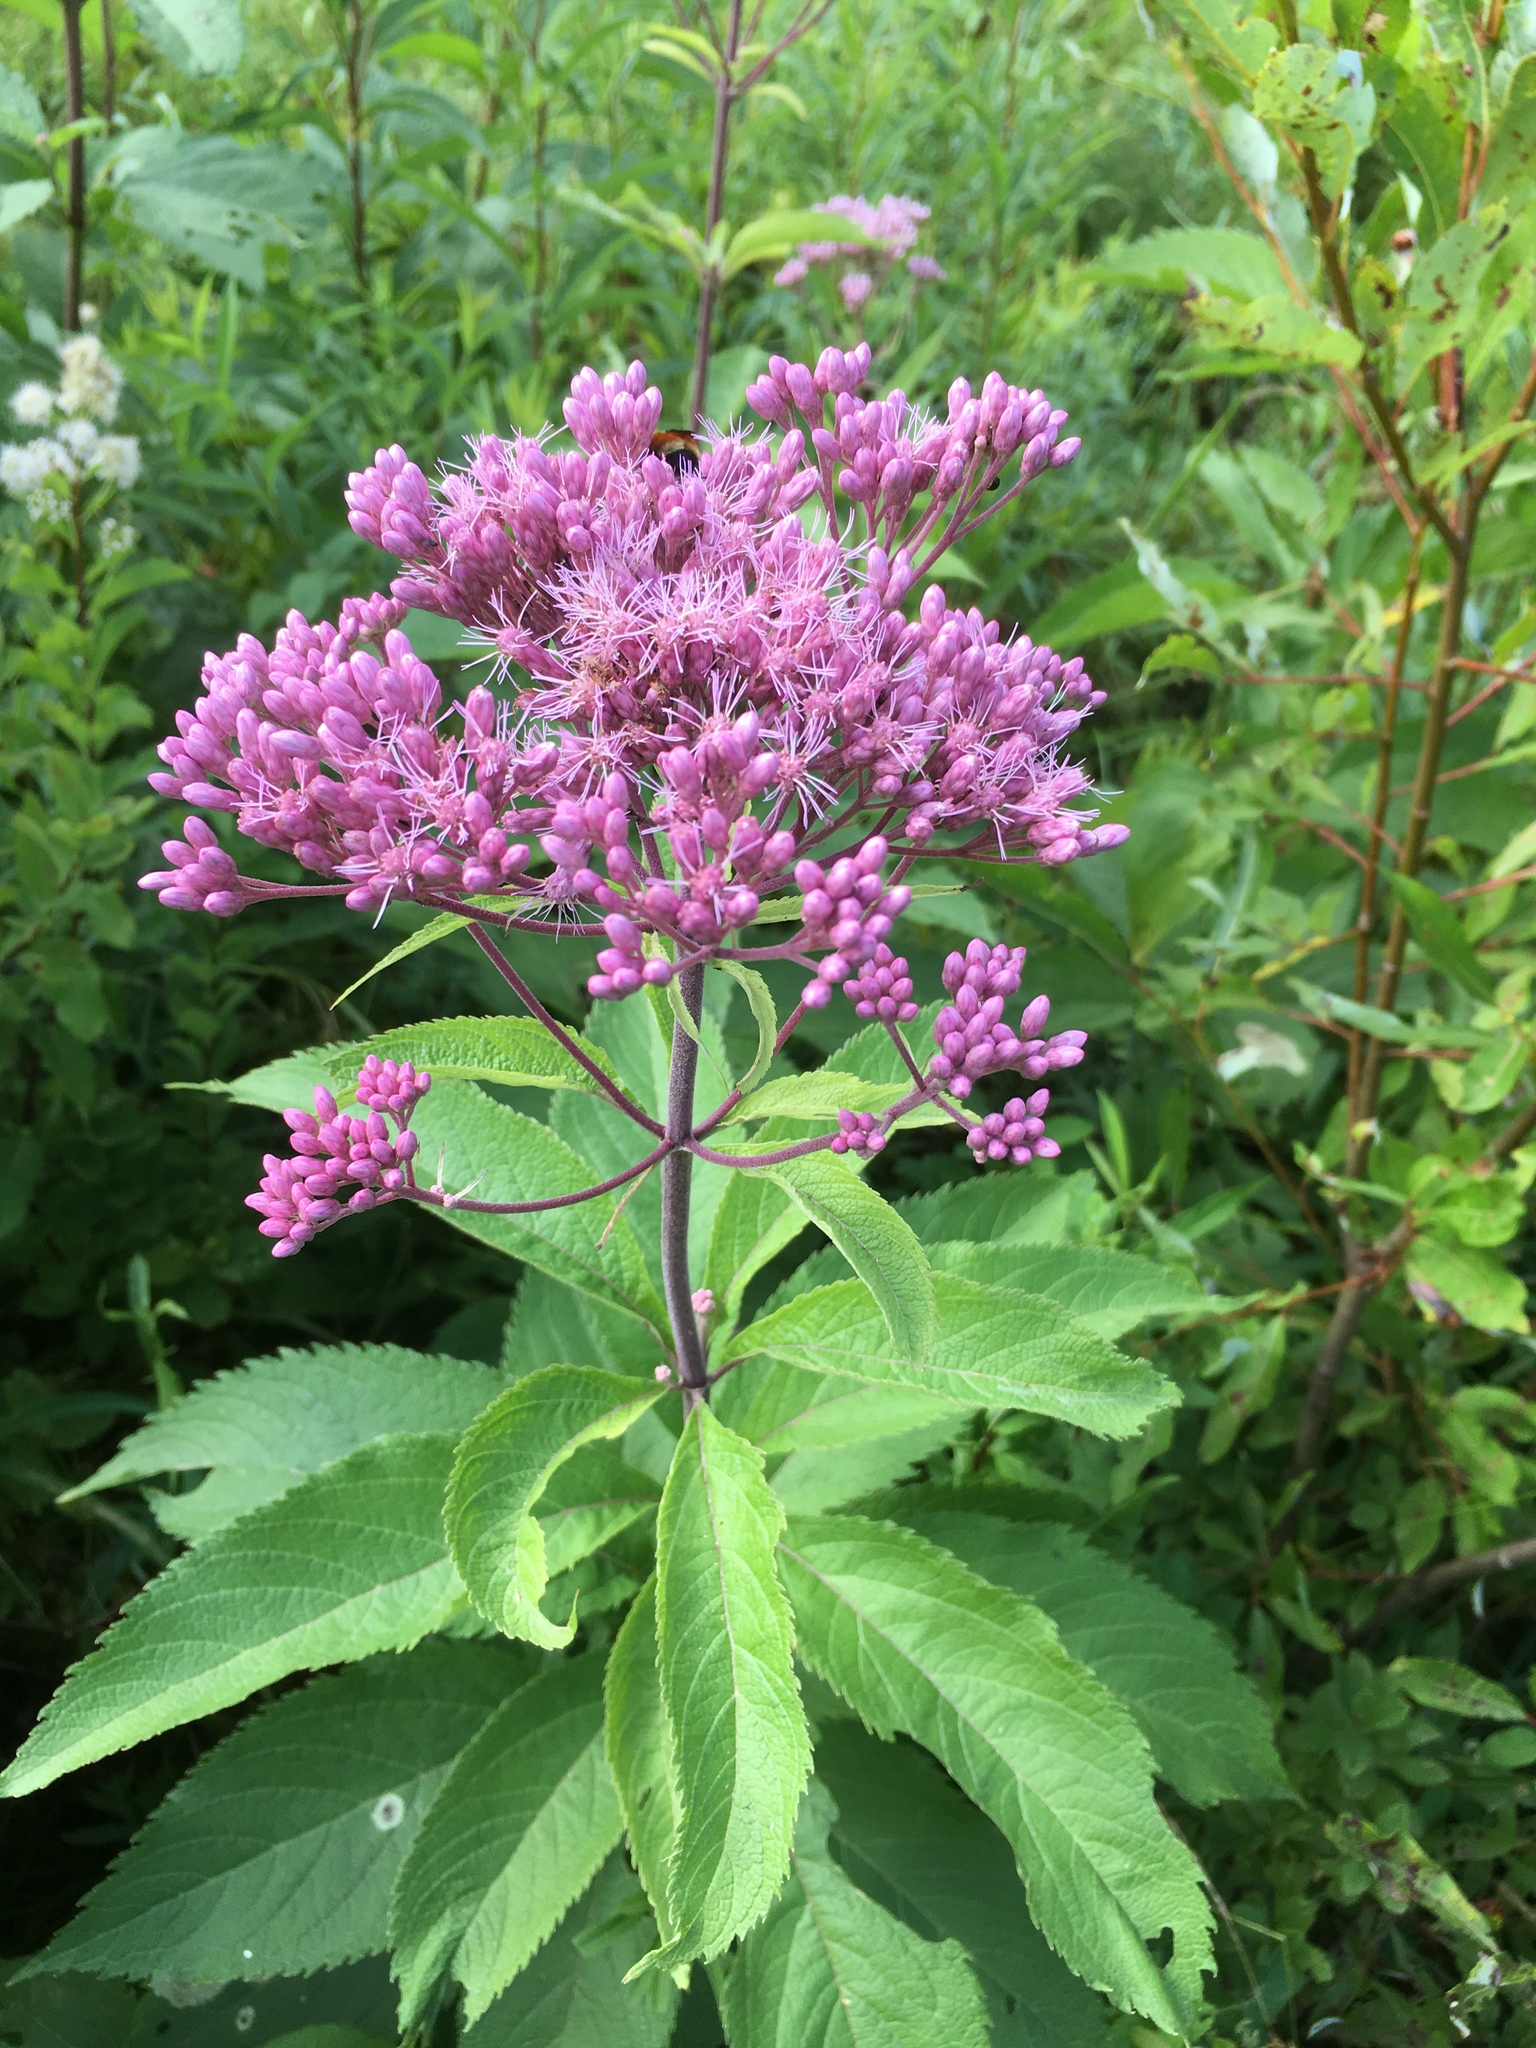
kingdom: Plantae
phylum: Tracheophyta
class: Magnoliopsida
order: Asterales
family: Asteraceae
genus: Eutrochium
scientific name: Eutrochium maculatum
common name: Spotted joe pye weed
